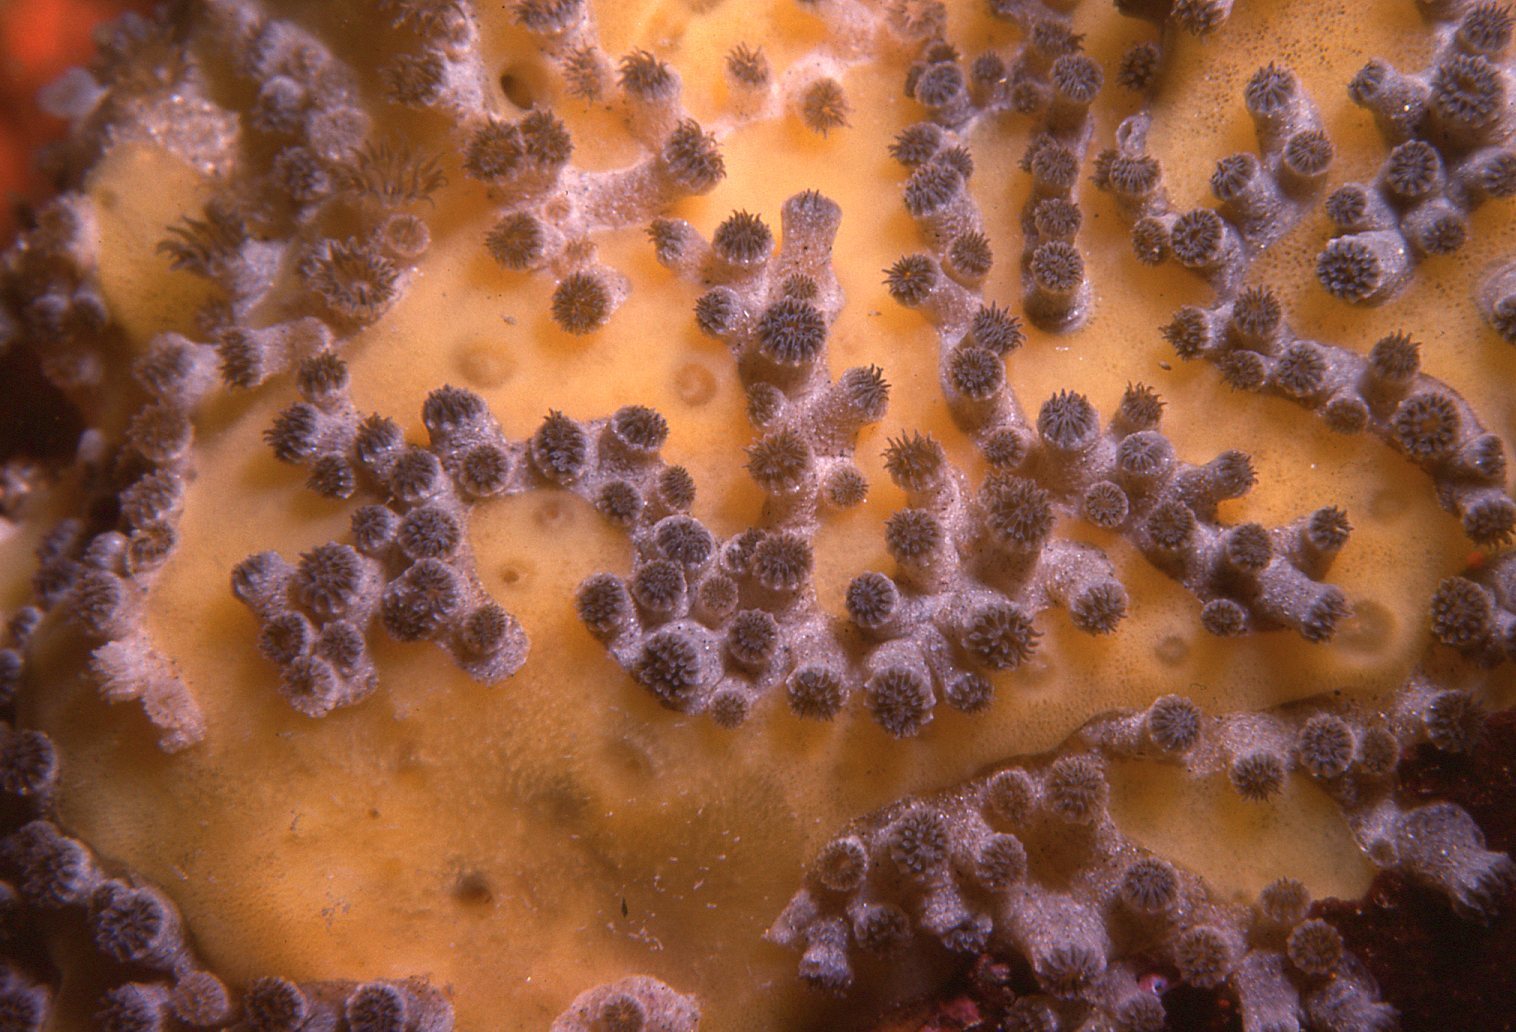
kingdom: Animalia
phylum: Cnidaria
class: Anthozoa
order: Zoantharia
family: Epizoanthidae
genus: Epizoanthus
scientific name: Epizoanthus sabulosus
